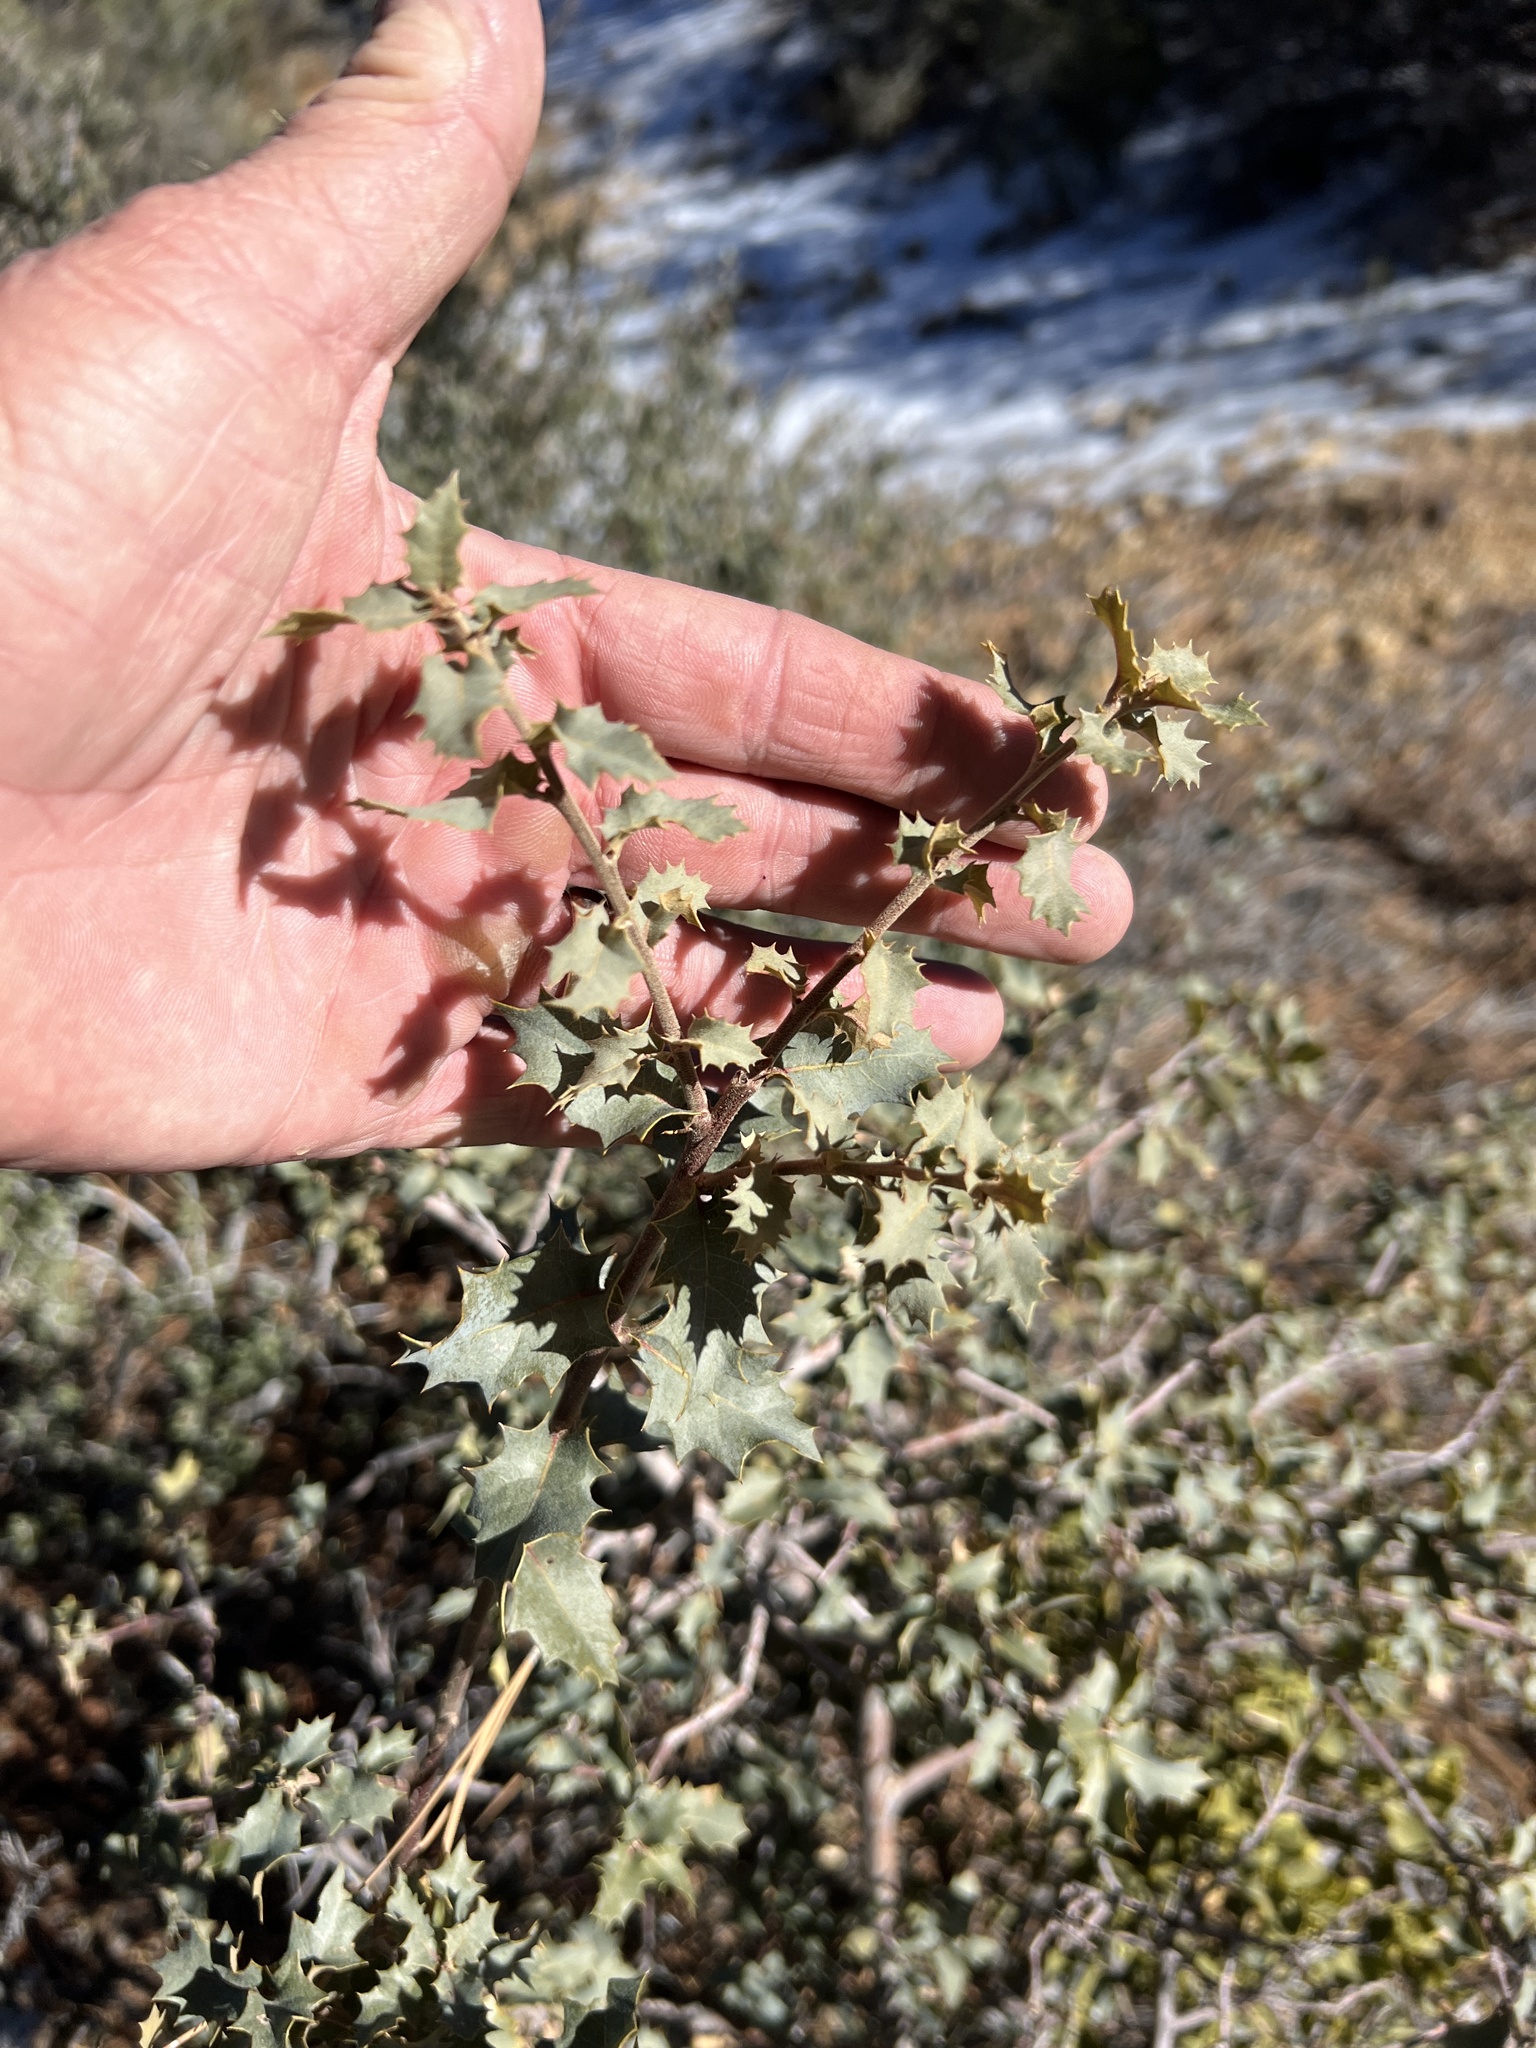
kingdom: Plantae
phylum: Tracheophyta
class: Magnoliopsida
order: Fagales
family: Fagaceae
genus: Quercus
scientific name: Quercus turbinella
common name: Sonoran scrub oak
